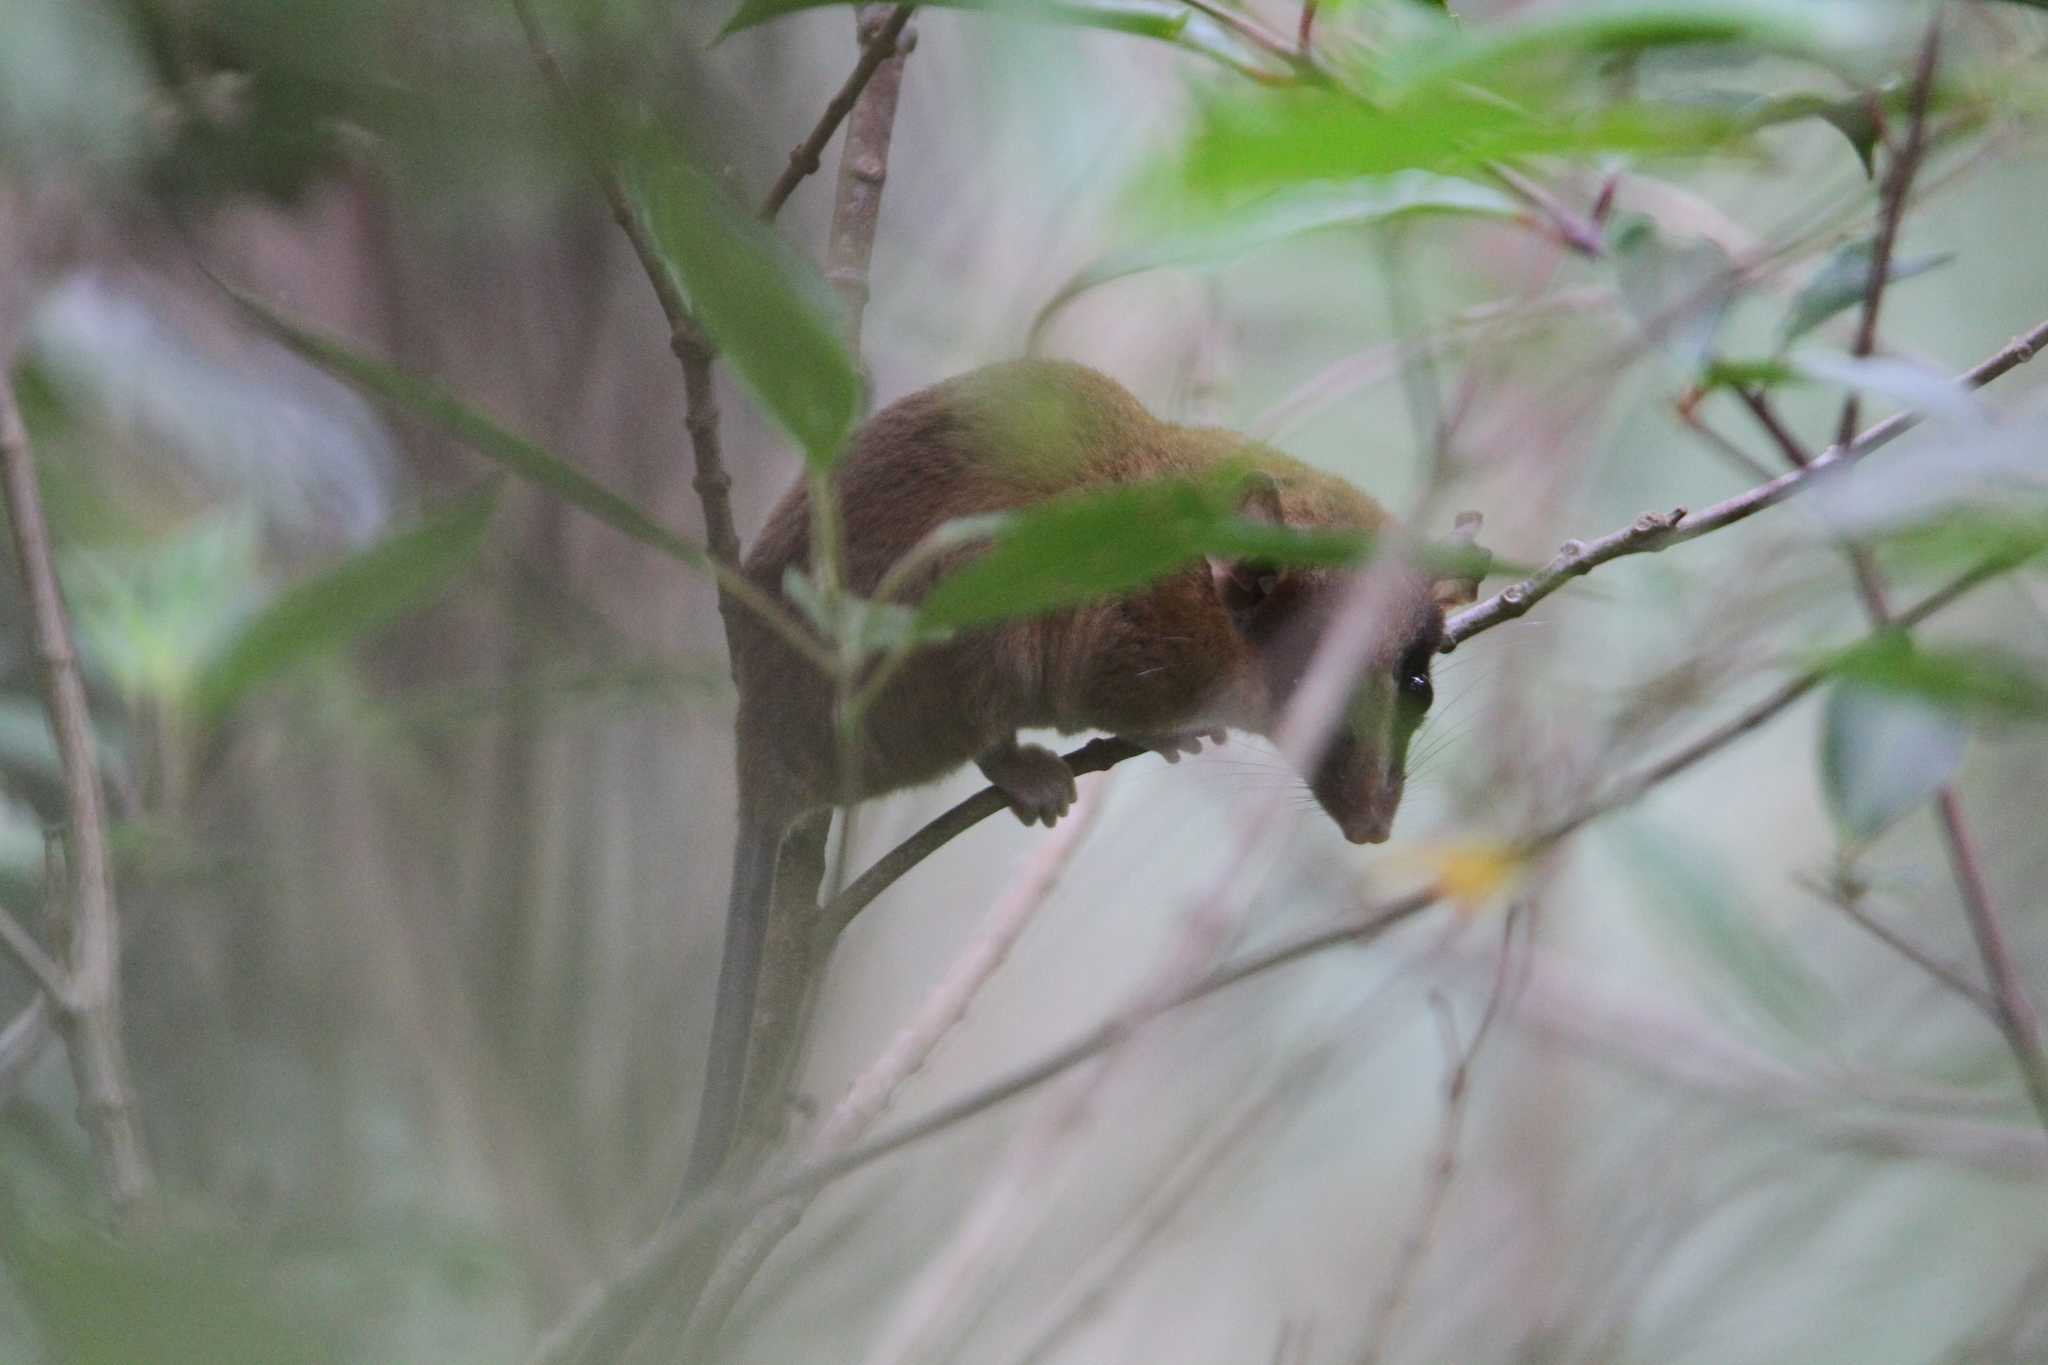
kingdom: Animalia
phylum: Chordata
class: Mammalia
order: Didelphimorphia
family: Didelphidae
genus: Marmosa
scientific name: Marmosa mexicana
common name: Mexican mouse opossum
